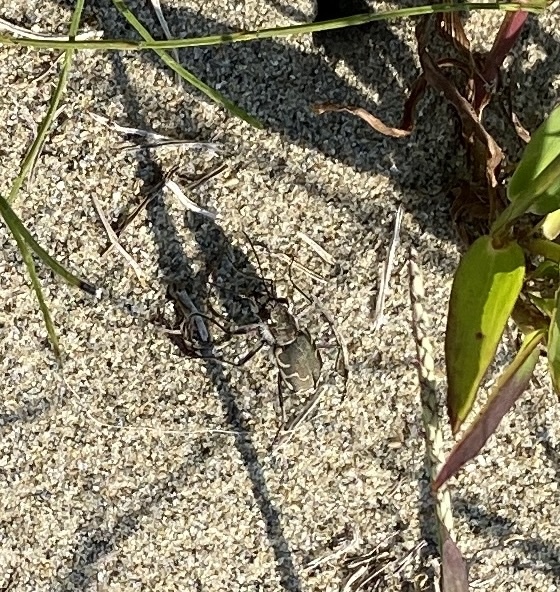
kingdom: Animalia
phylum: Arthropoda
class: Insecta
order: Coleoptera
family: Carabidae
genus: Cicindela
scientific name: Cicindela repanda
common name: Bronzed tiger beetle
